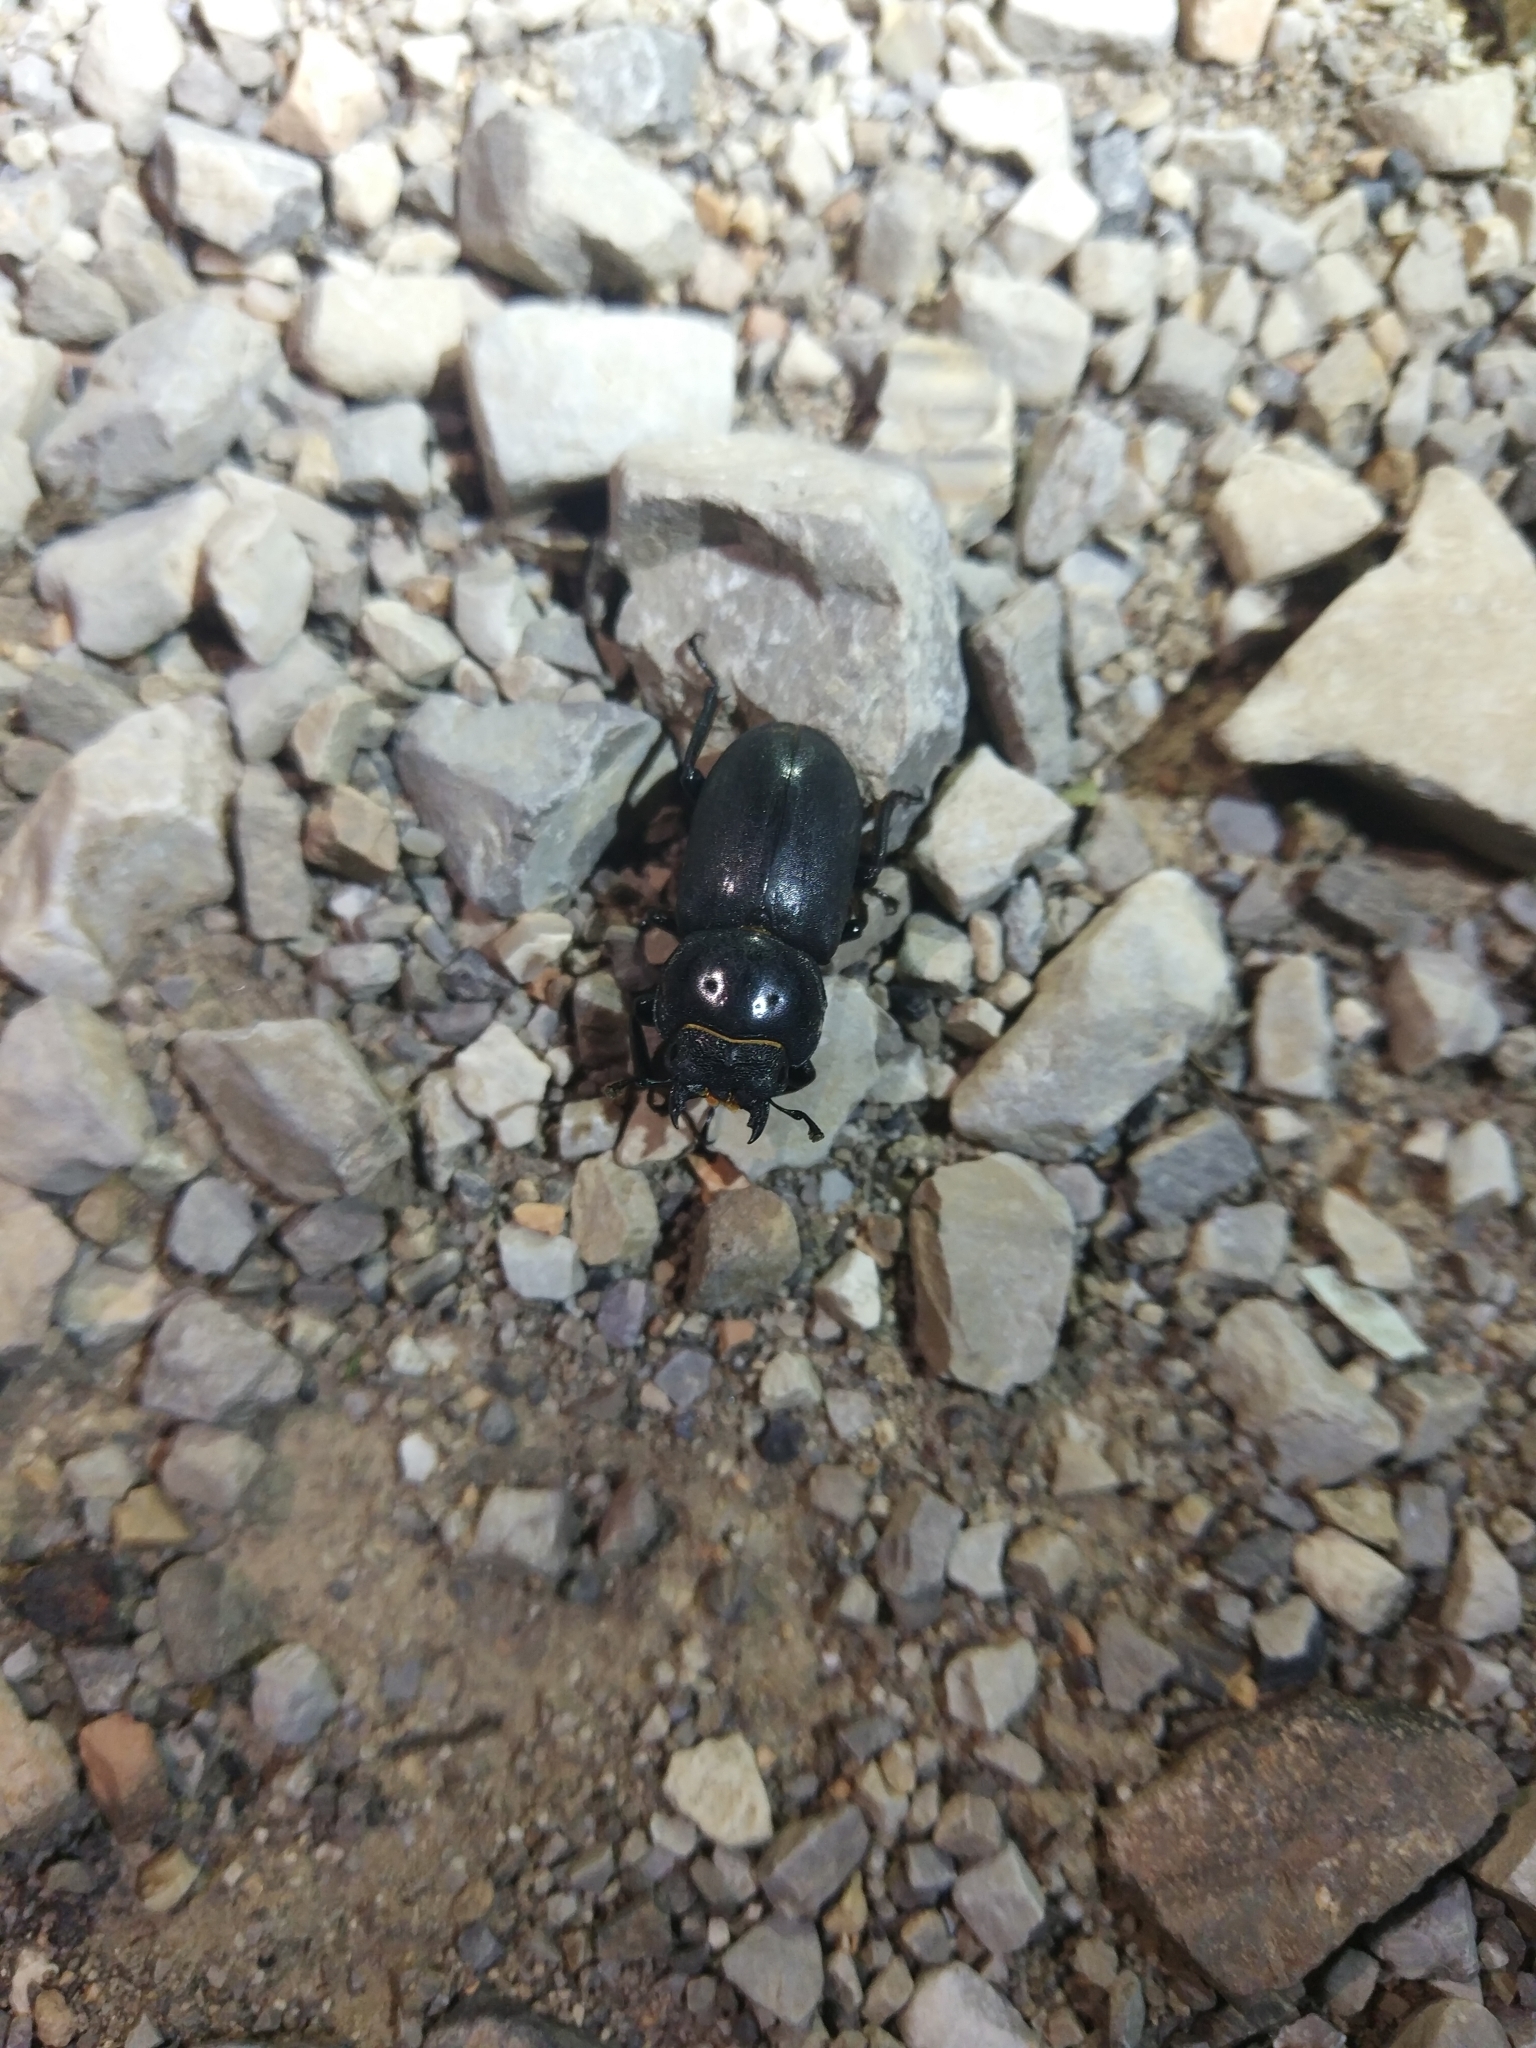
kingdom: Animalia
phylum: Arthropoda
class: Insecta
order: Coleoptera
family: Lucanidae
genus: Dorcus
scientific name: Dorcus davidis
